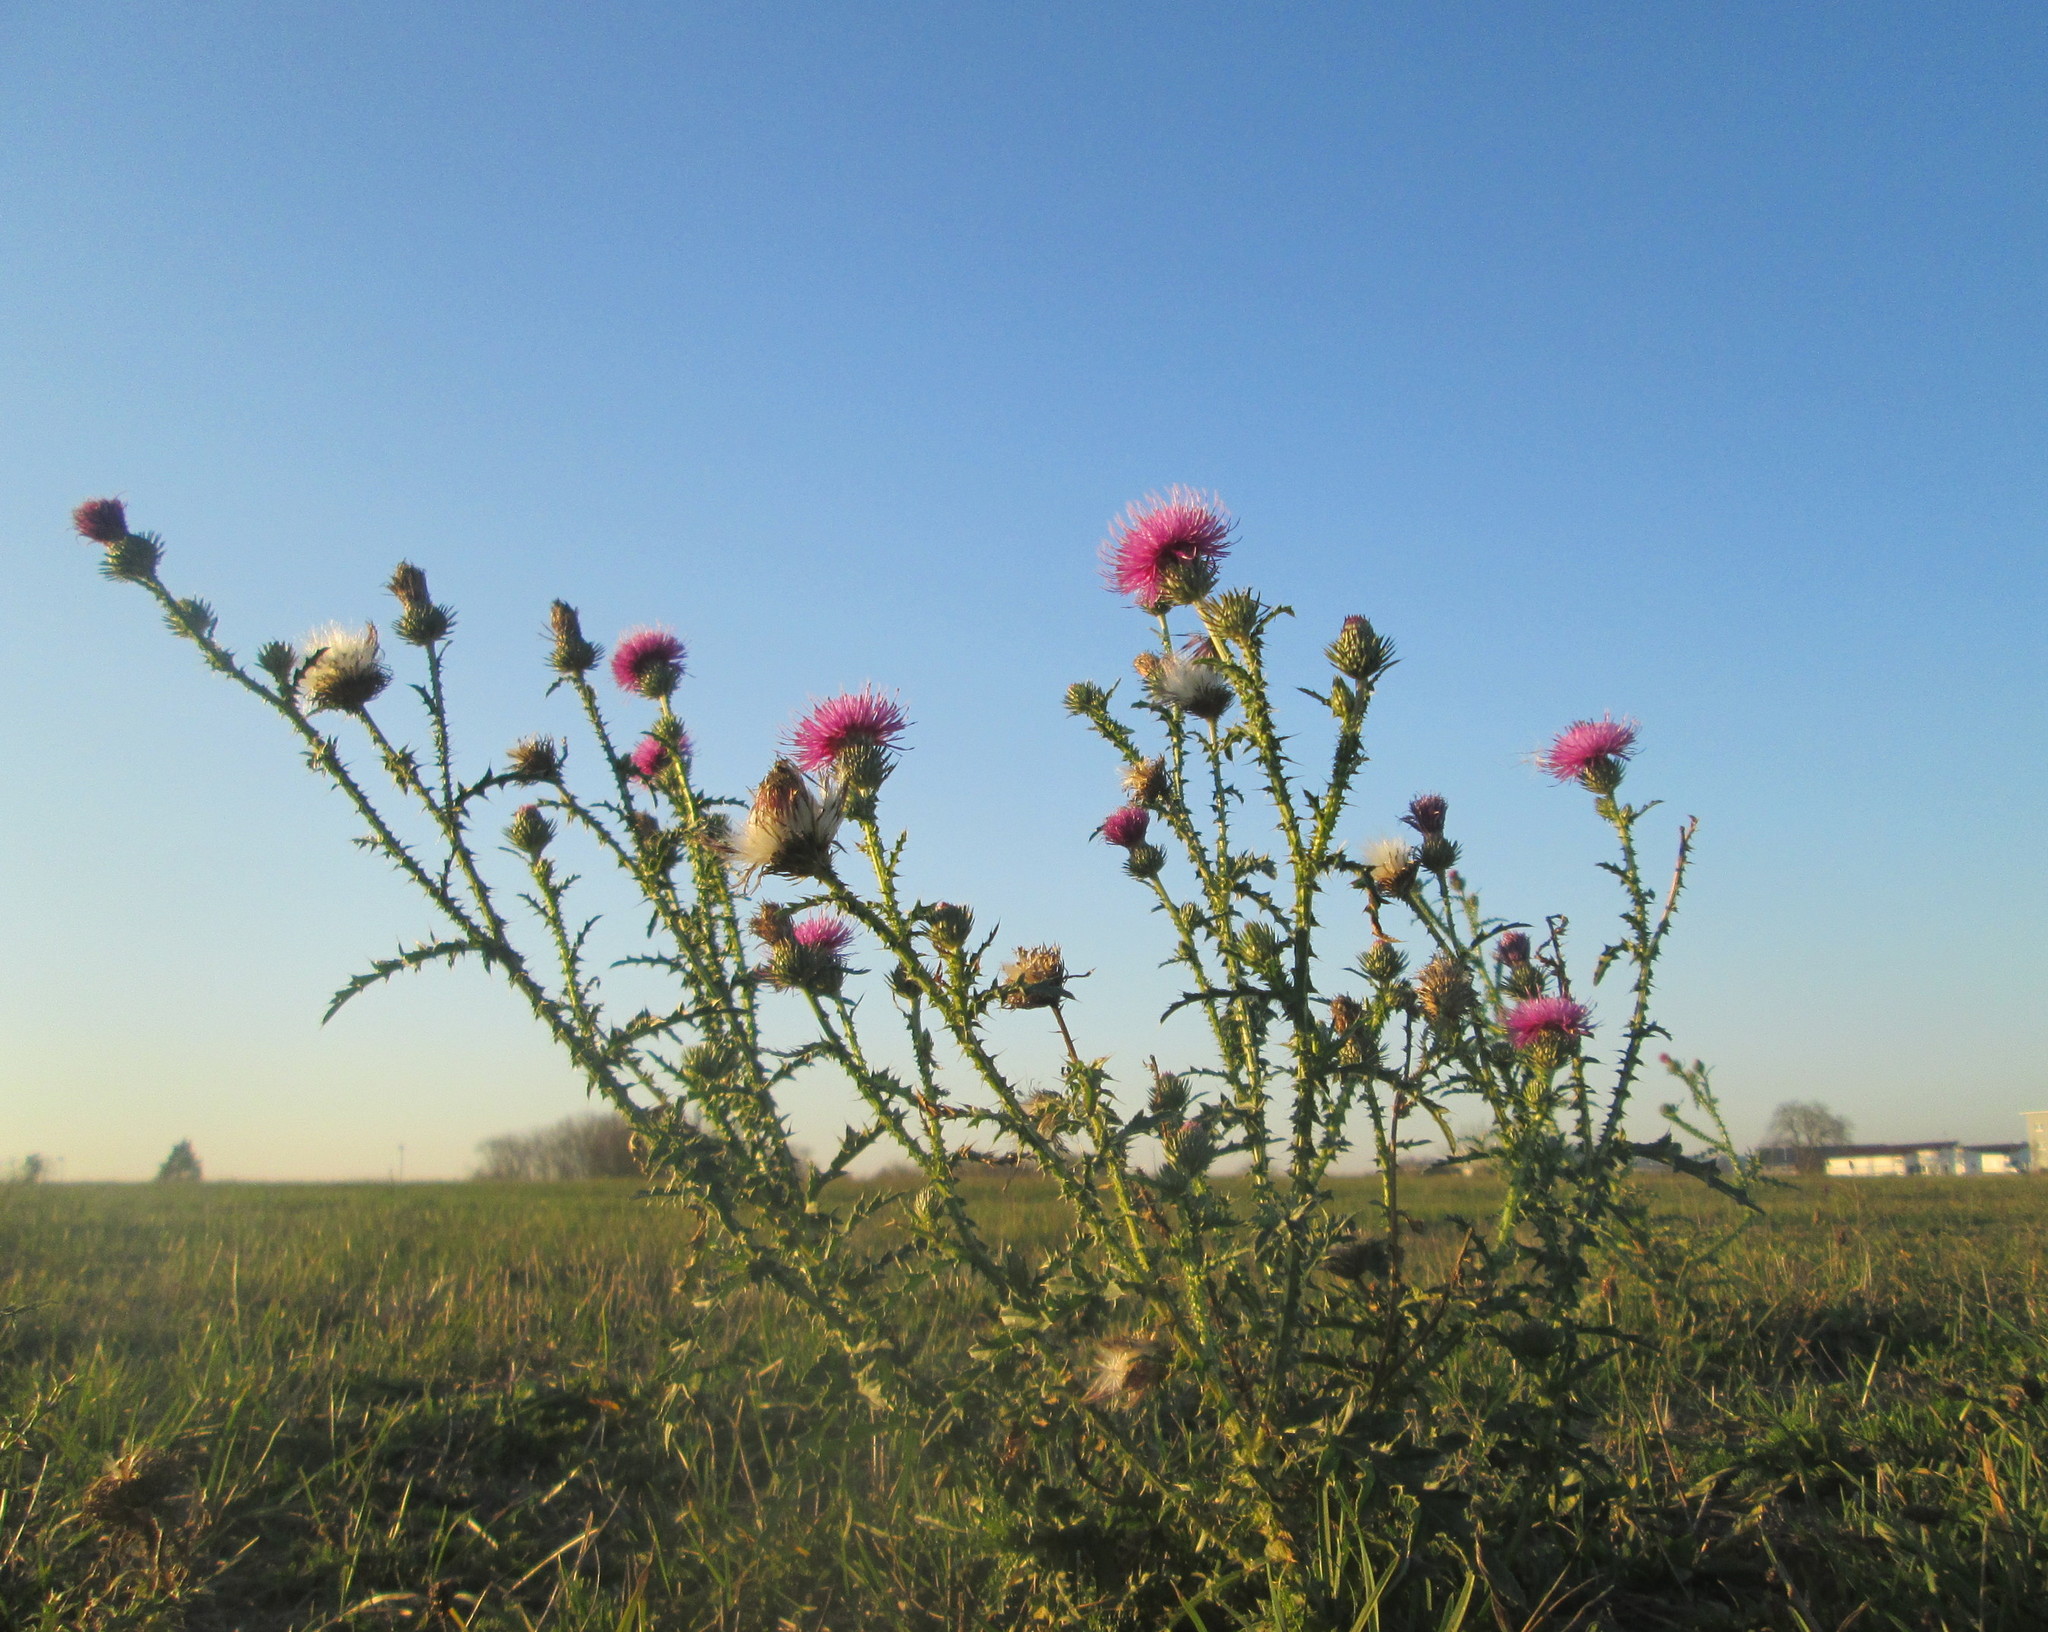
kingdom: Plantae
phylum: Tracheophyta
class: Magnoliopsida
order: Asterales
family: Asteraceae
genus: Carduus
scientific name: Carduus acanthoides
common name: Plumeless thistle
